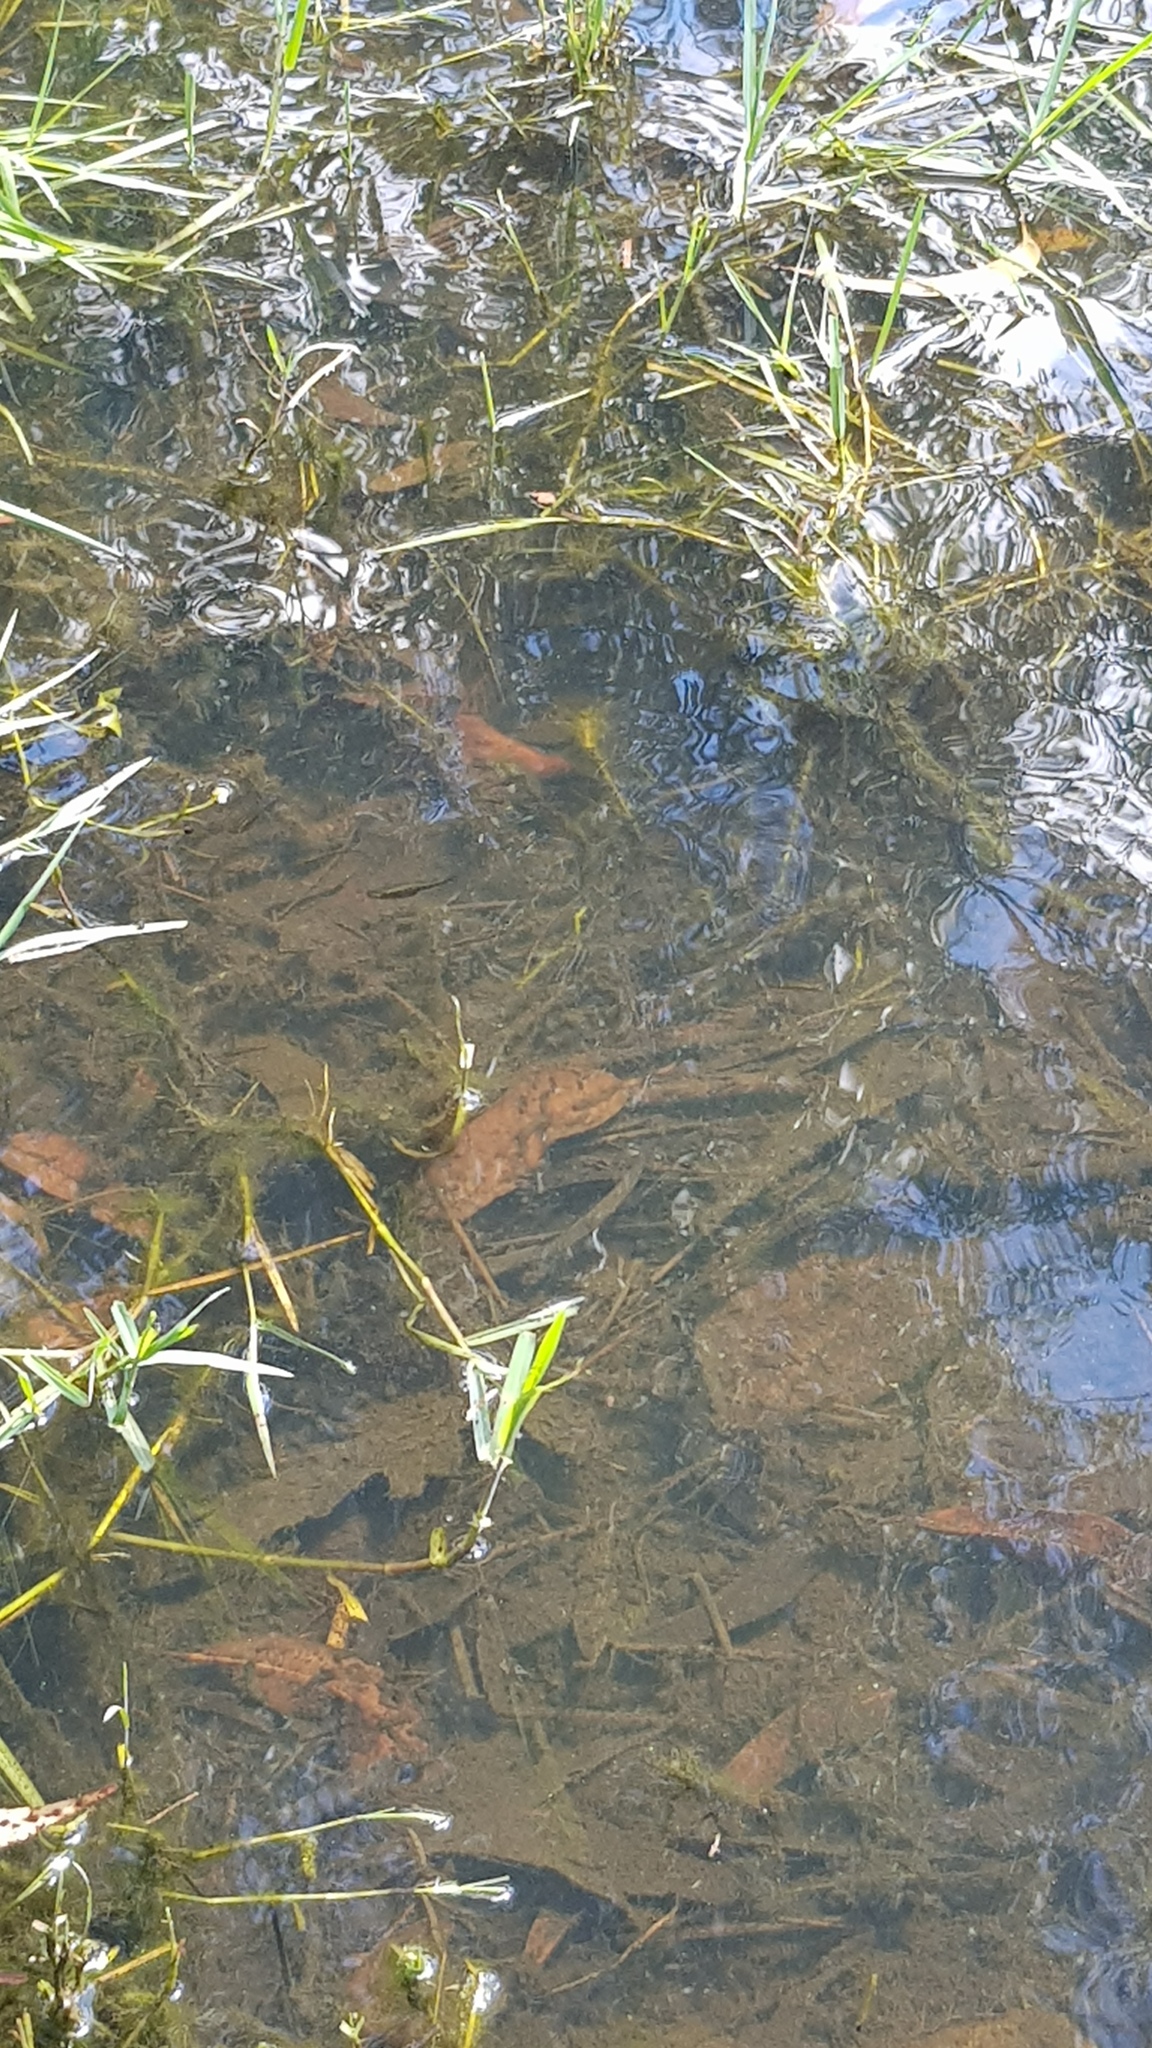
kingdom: Animalia
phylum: Chordata
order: Cyprinodontiformes
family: Poeciliidae
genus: Gambusia
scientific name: Gambusia holbrooki
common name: Eastern mosquitofish
